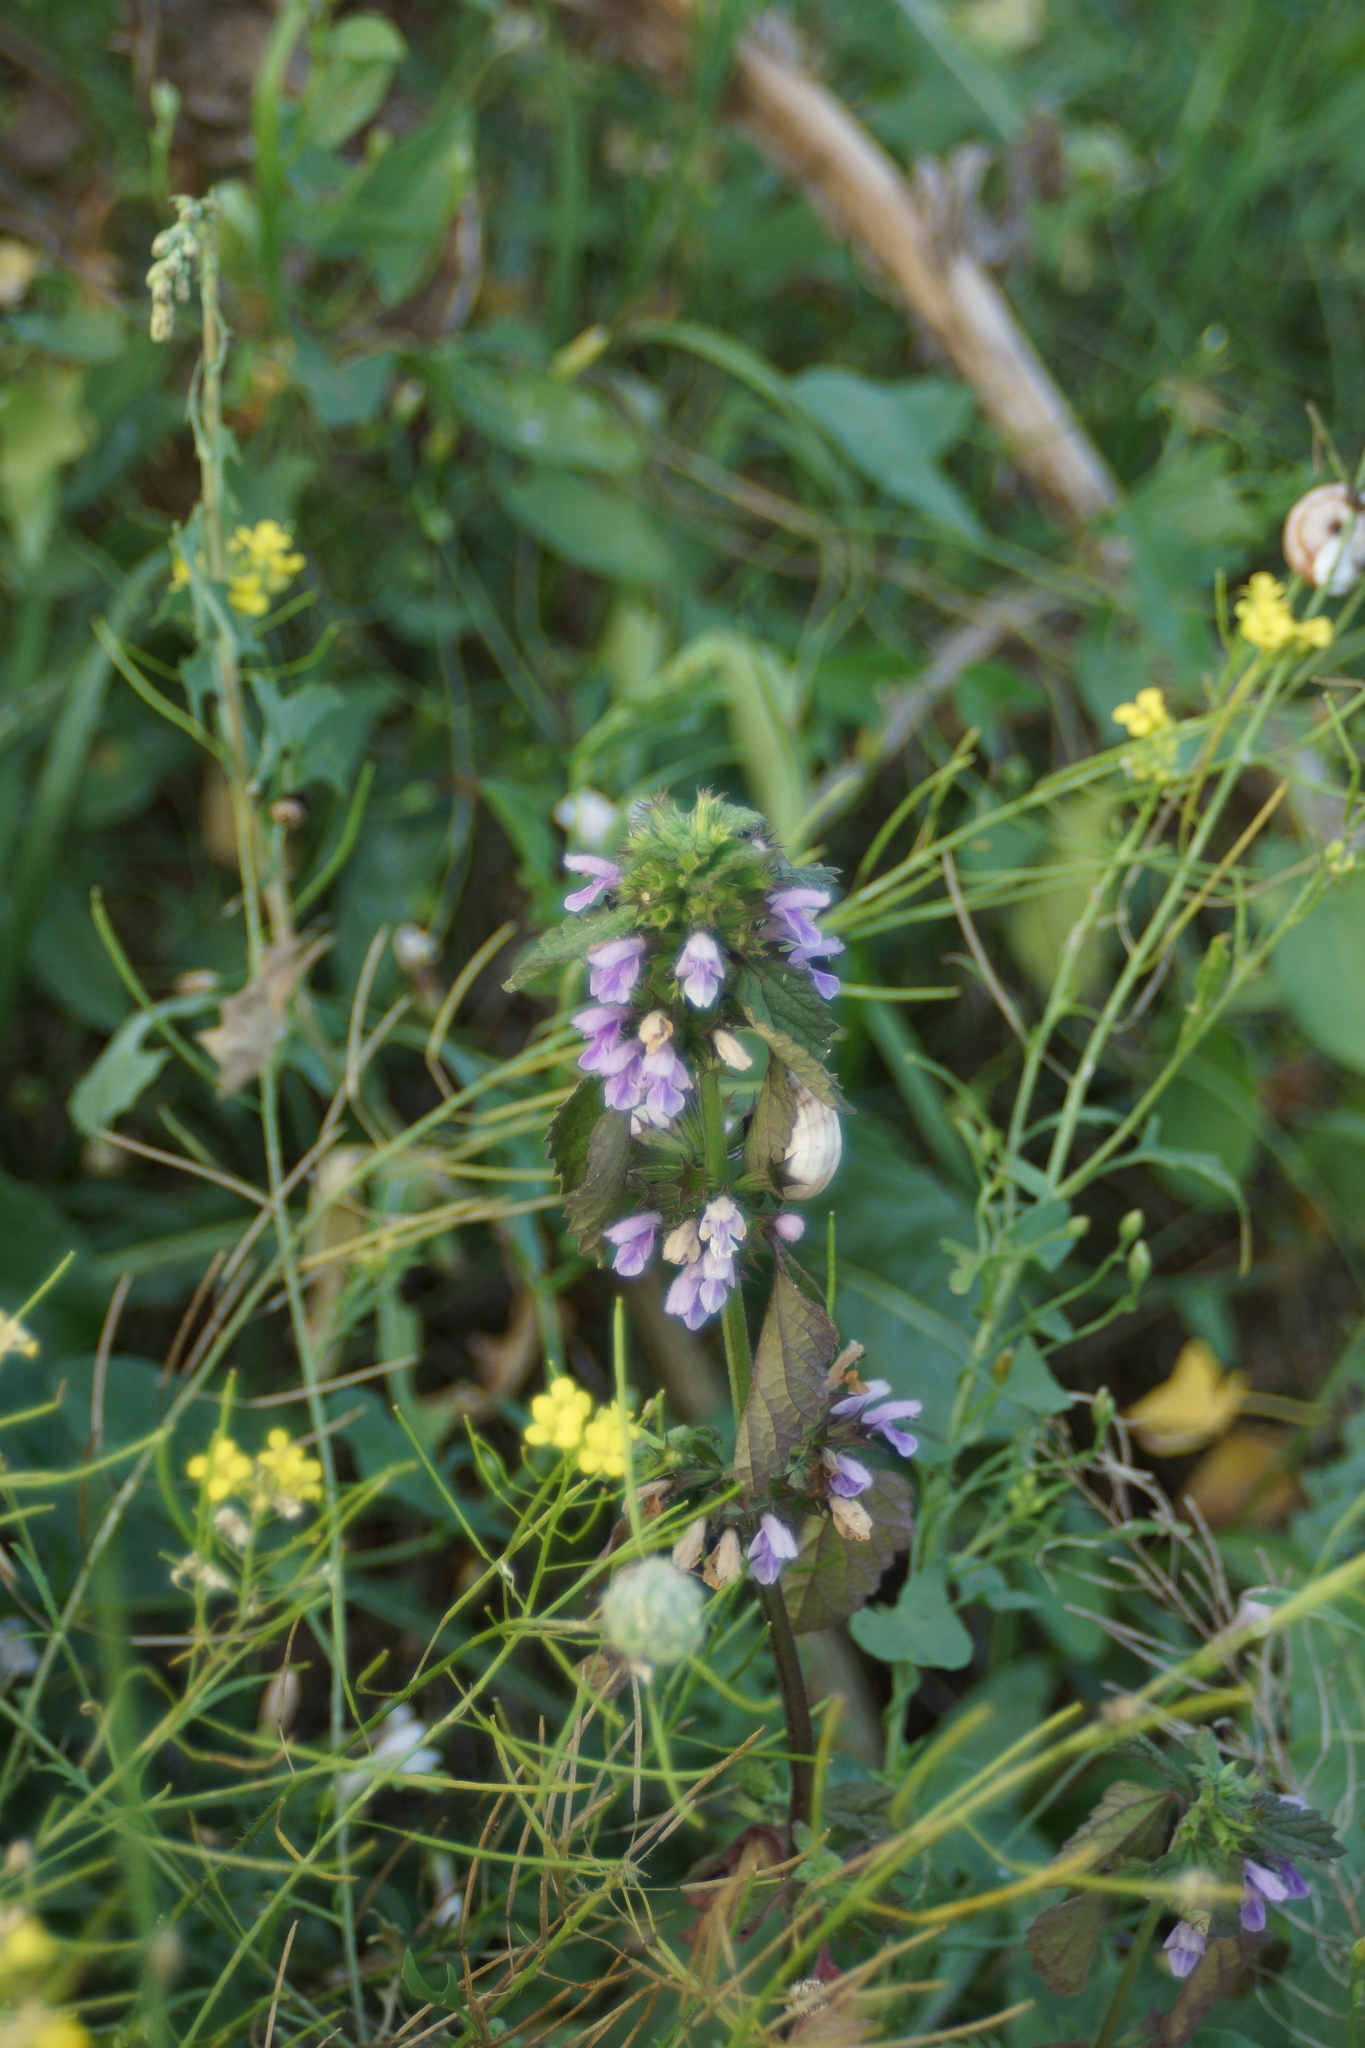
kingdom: Plantae
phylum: Tracheophyta
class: Magnoliopsida
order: Lamiales
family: Lamiaceae
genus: Ballota
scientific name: Ballota nigra
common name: Black horehound
